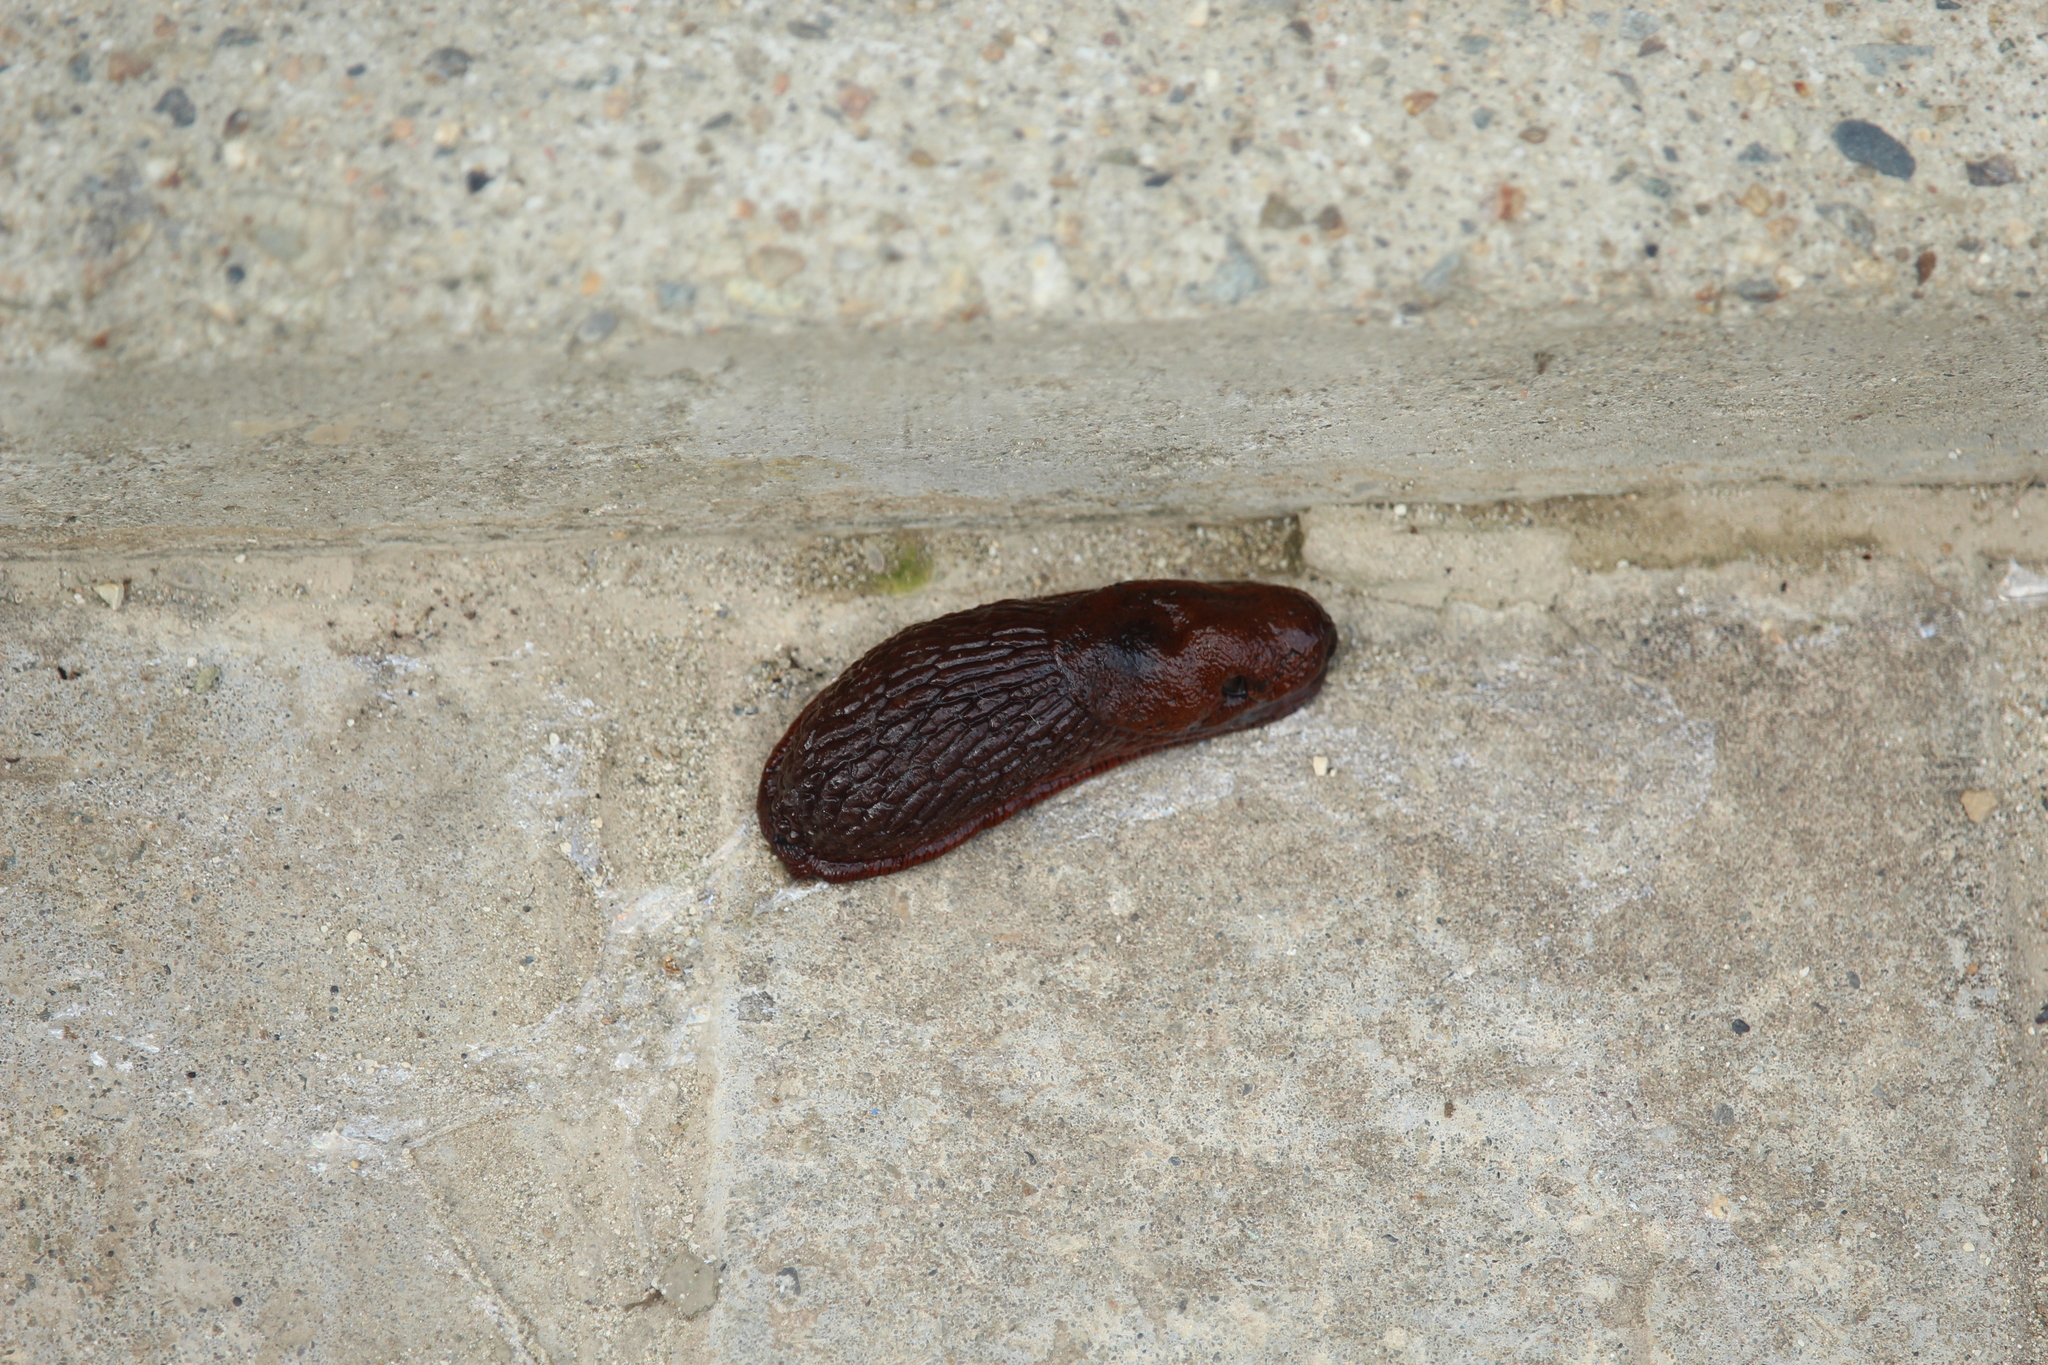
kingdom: Animalia
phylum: Mollusca
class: Gastropoda
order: Stylommatophora
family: Arionidae
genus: Arion
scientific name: Arion vulgaris
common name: Lusitanian slug
